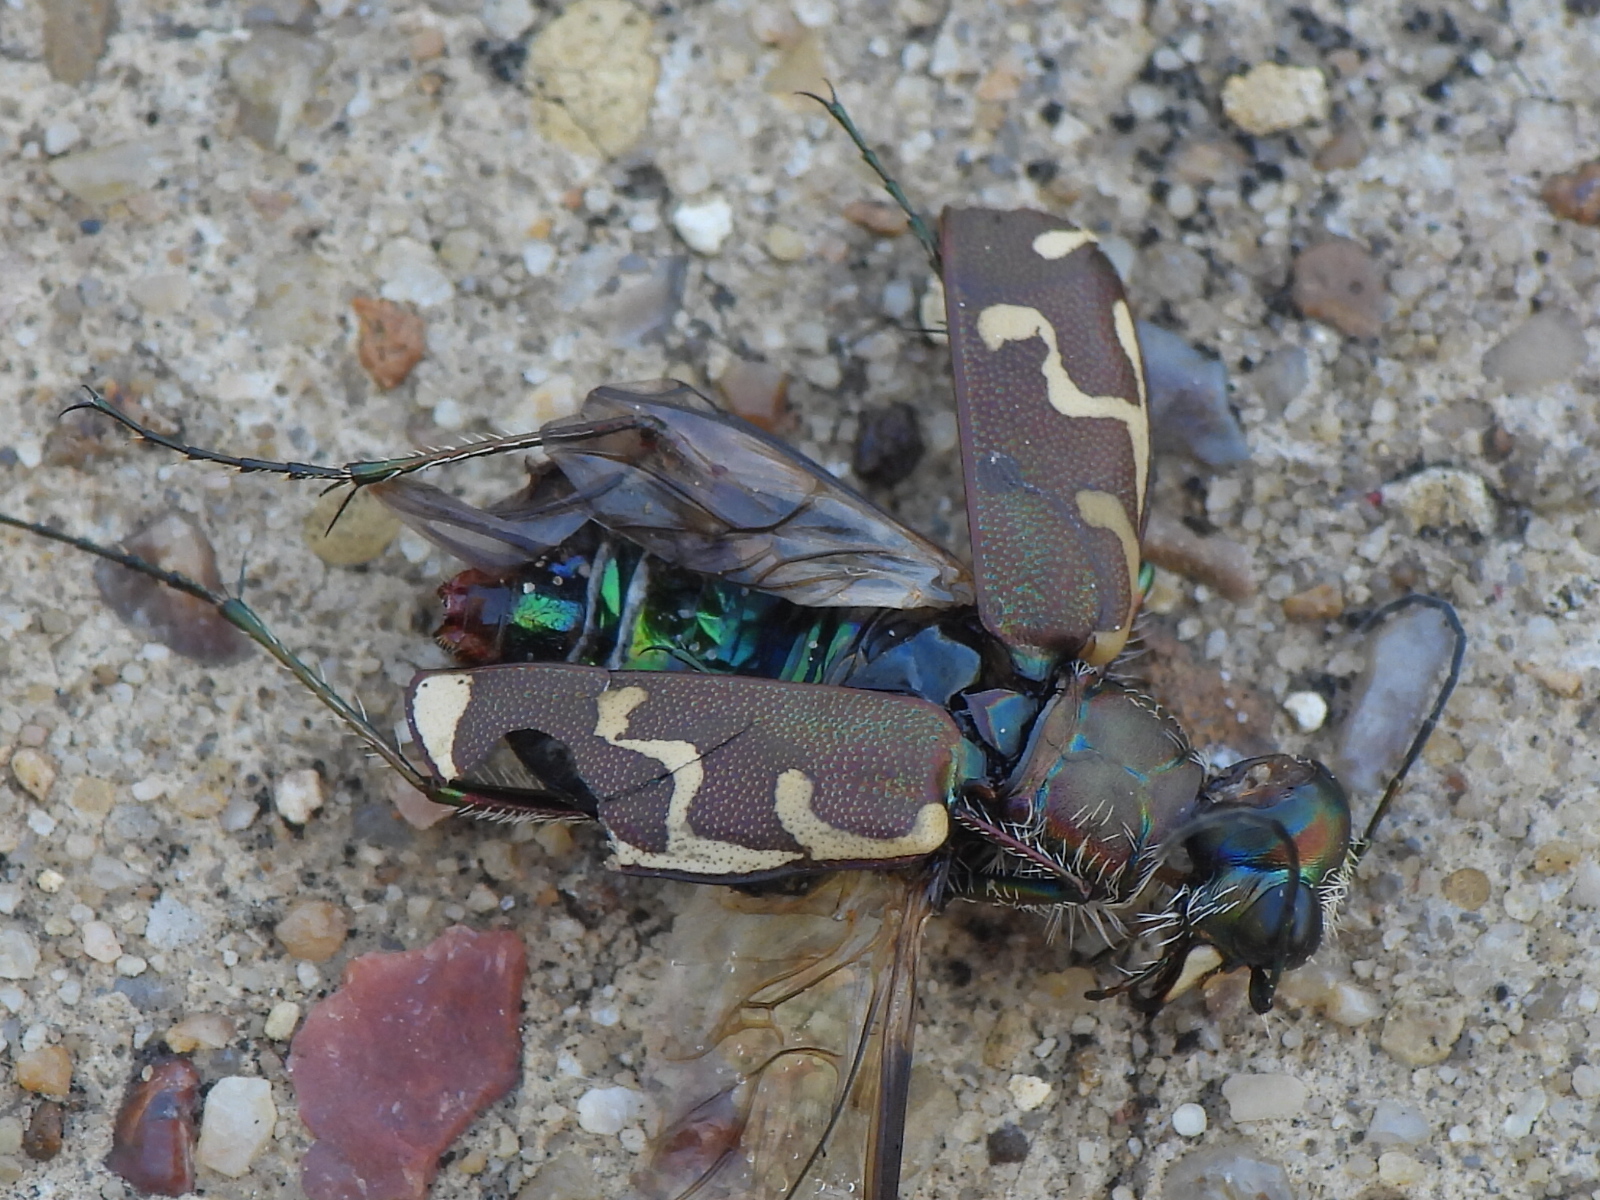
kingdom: Animalia
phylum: Arthropoda
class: Insecta
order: Coleoptera
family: Carabidae
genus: Cicindela
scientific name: Cicindela repanda
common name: Bronzed tiger beetle
